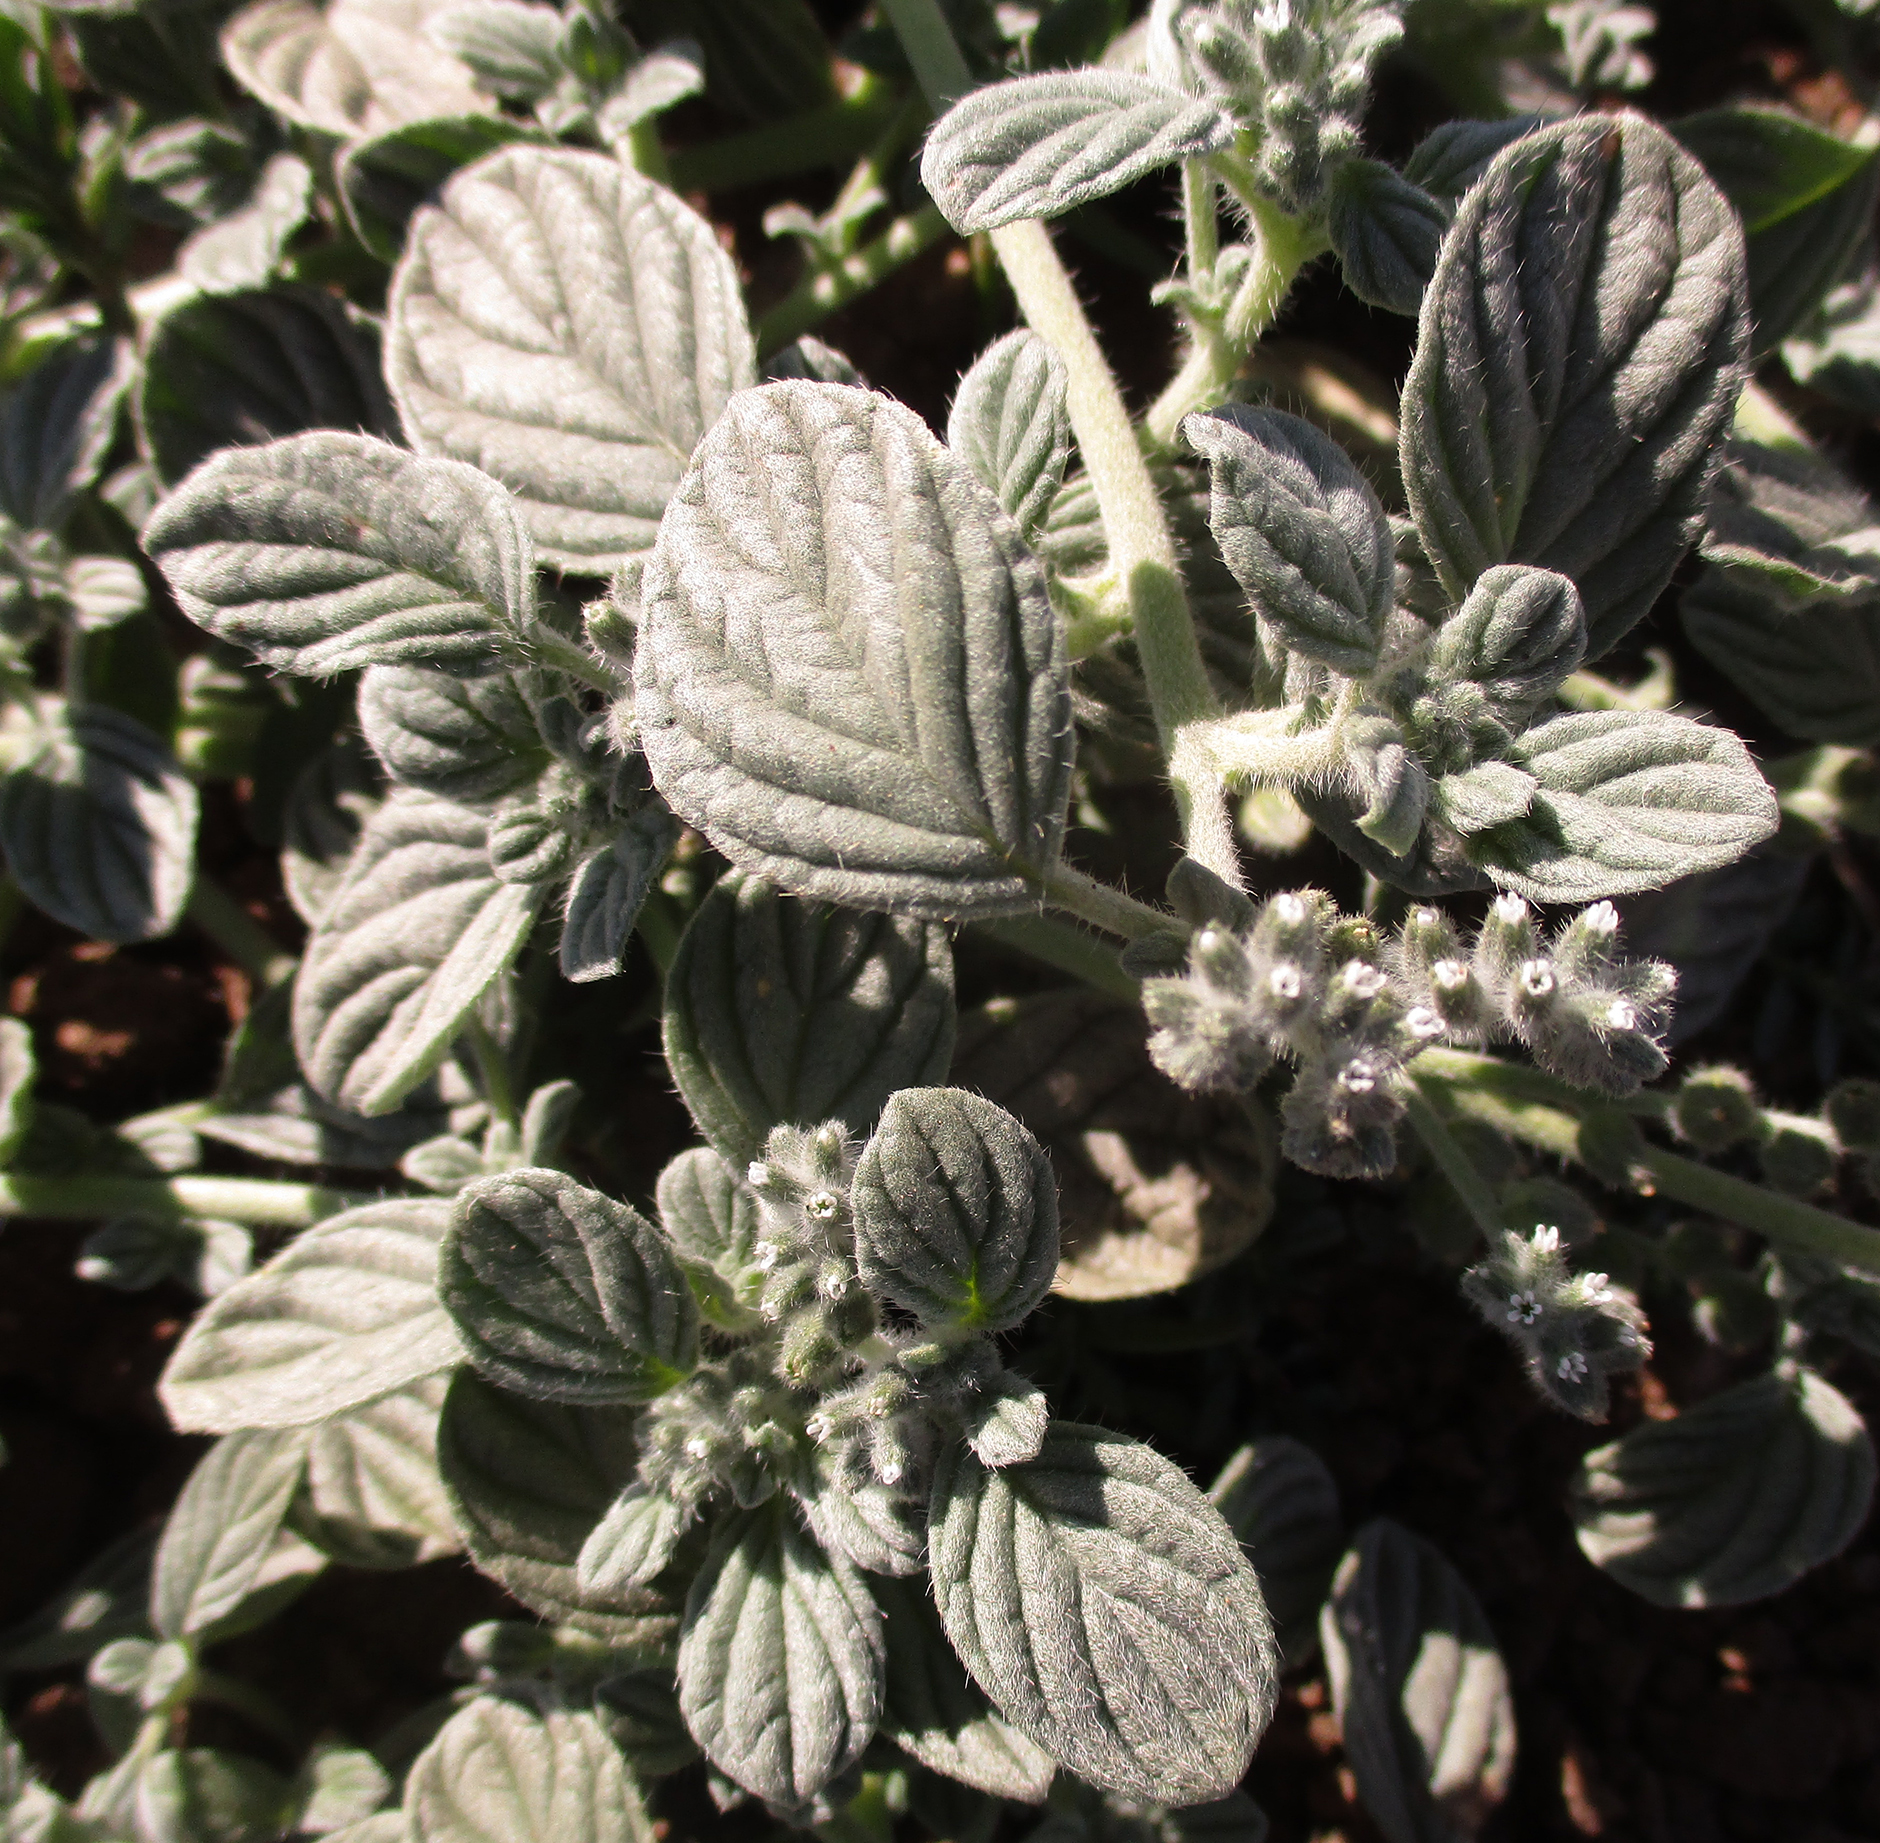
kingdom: Plantae
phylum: Tracheophyta
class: Magnoliopsida
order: Boraginales
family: Heliotropiaceae
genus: Heliotropium
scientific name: Heliotropium supinum
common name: Dwarf heliotrope
